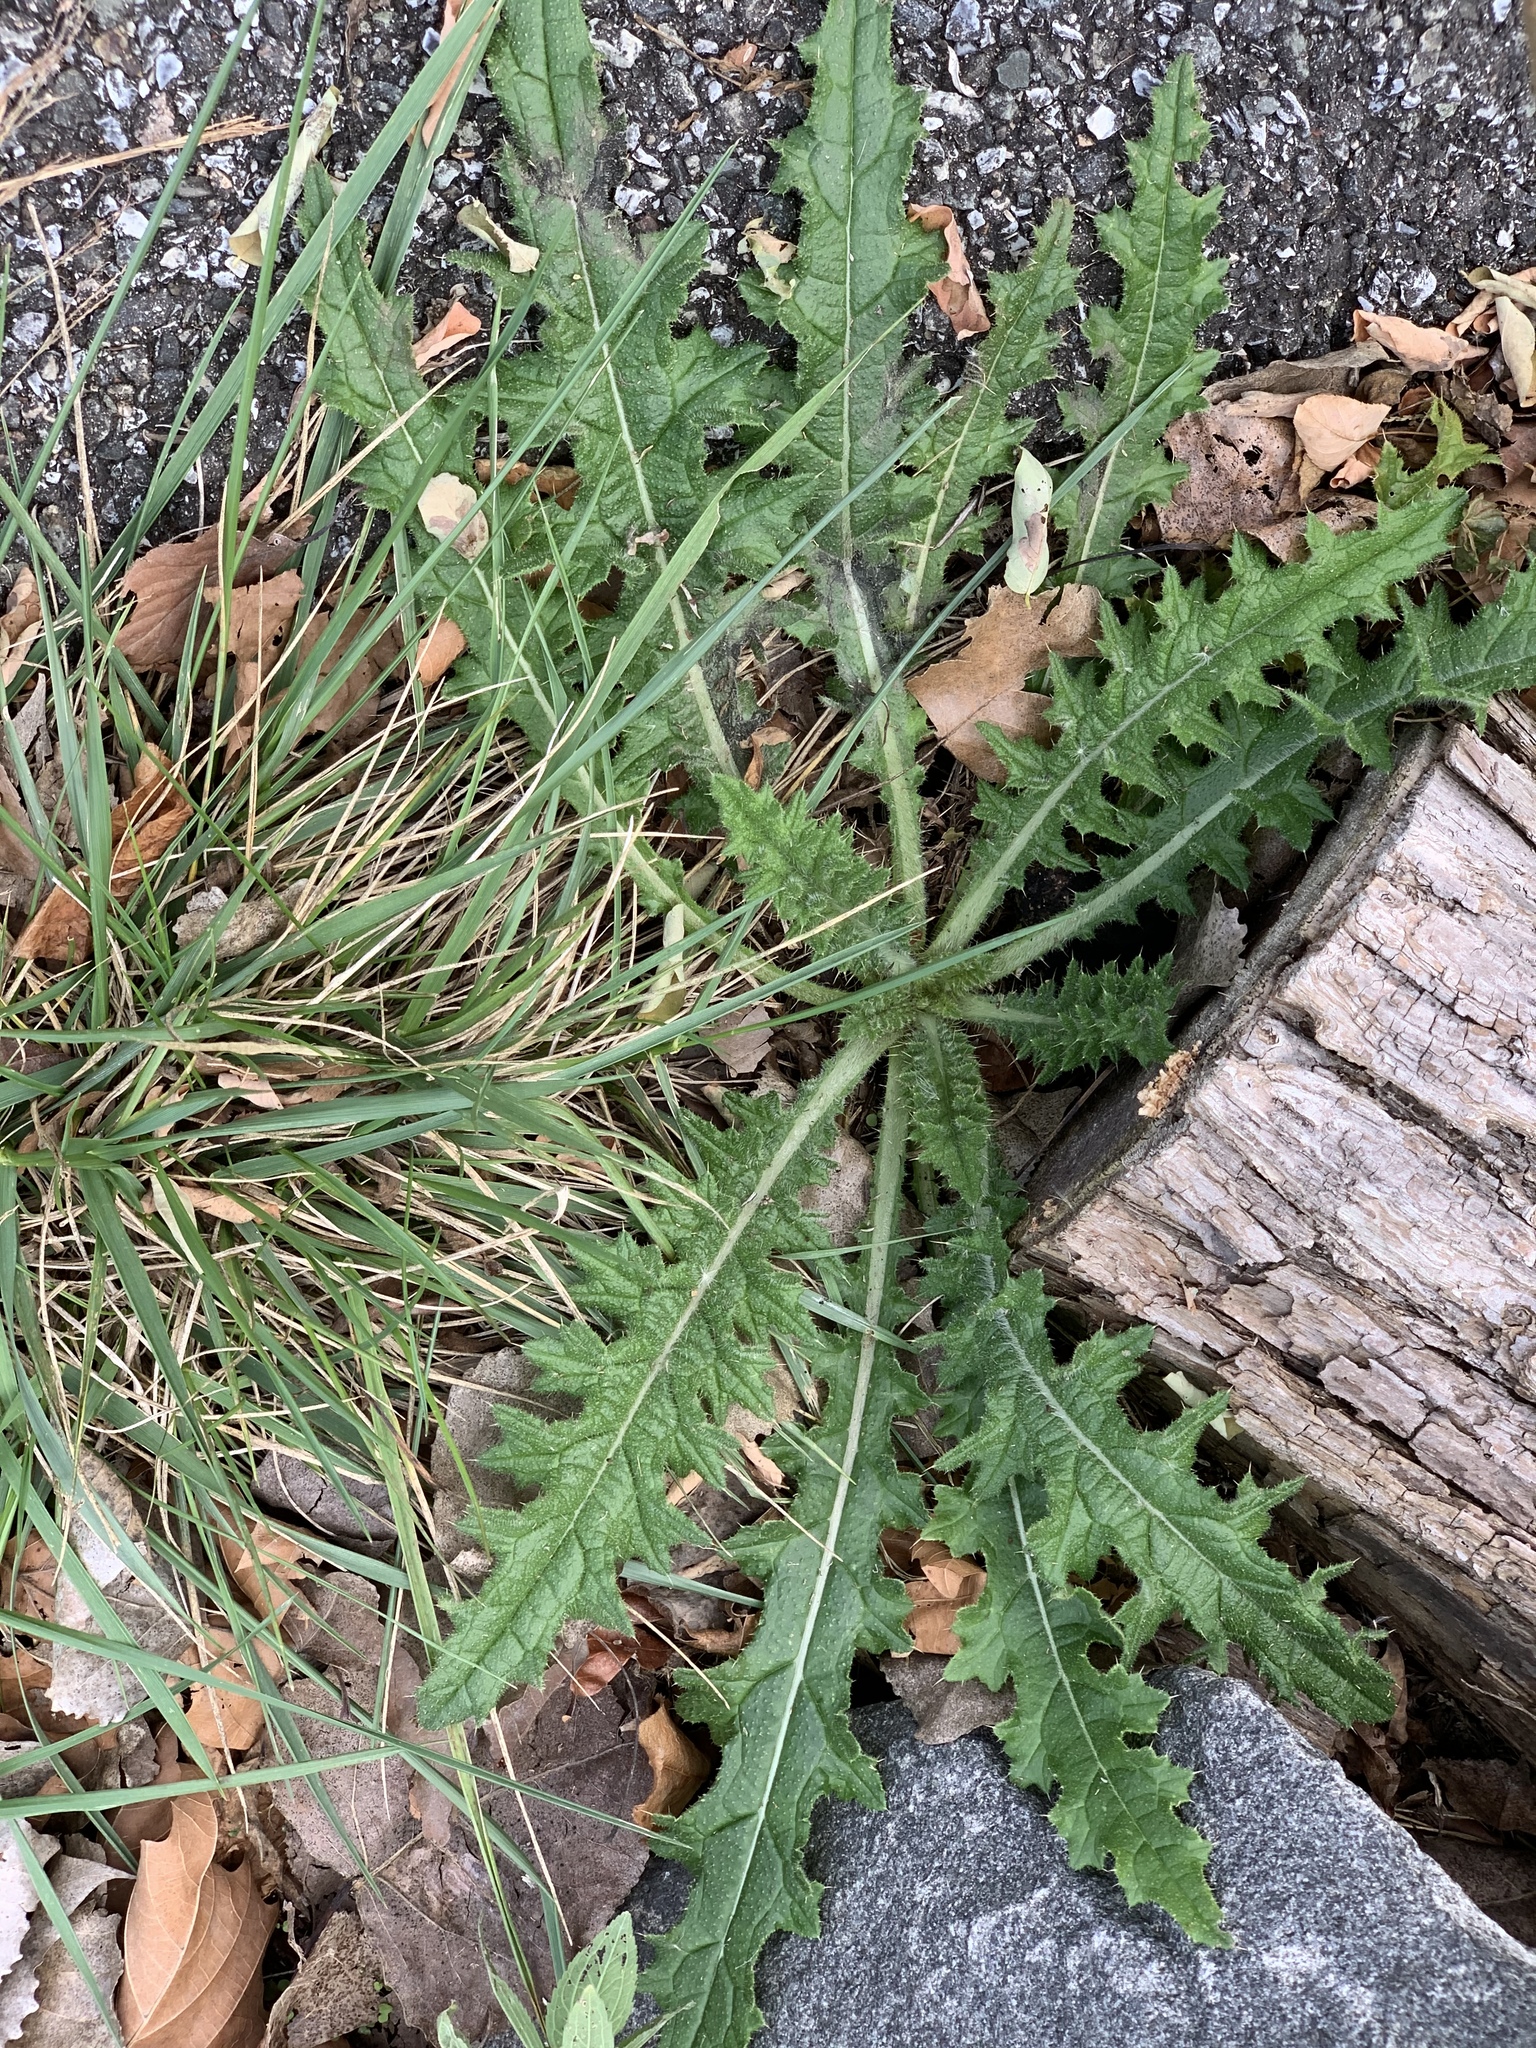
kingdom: Plantae
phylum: Tracheophyta
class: Magnoliopsida
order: Asterales
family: Asteraceae
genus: Cirsium
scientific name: Cirsium vulgare
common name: Bull thistle
